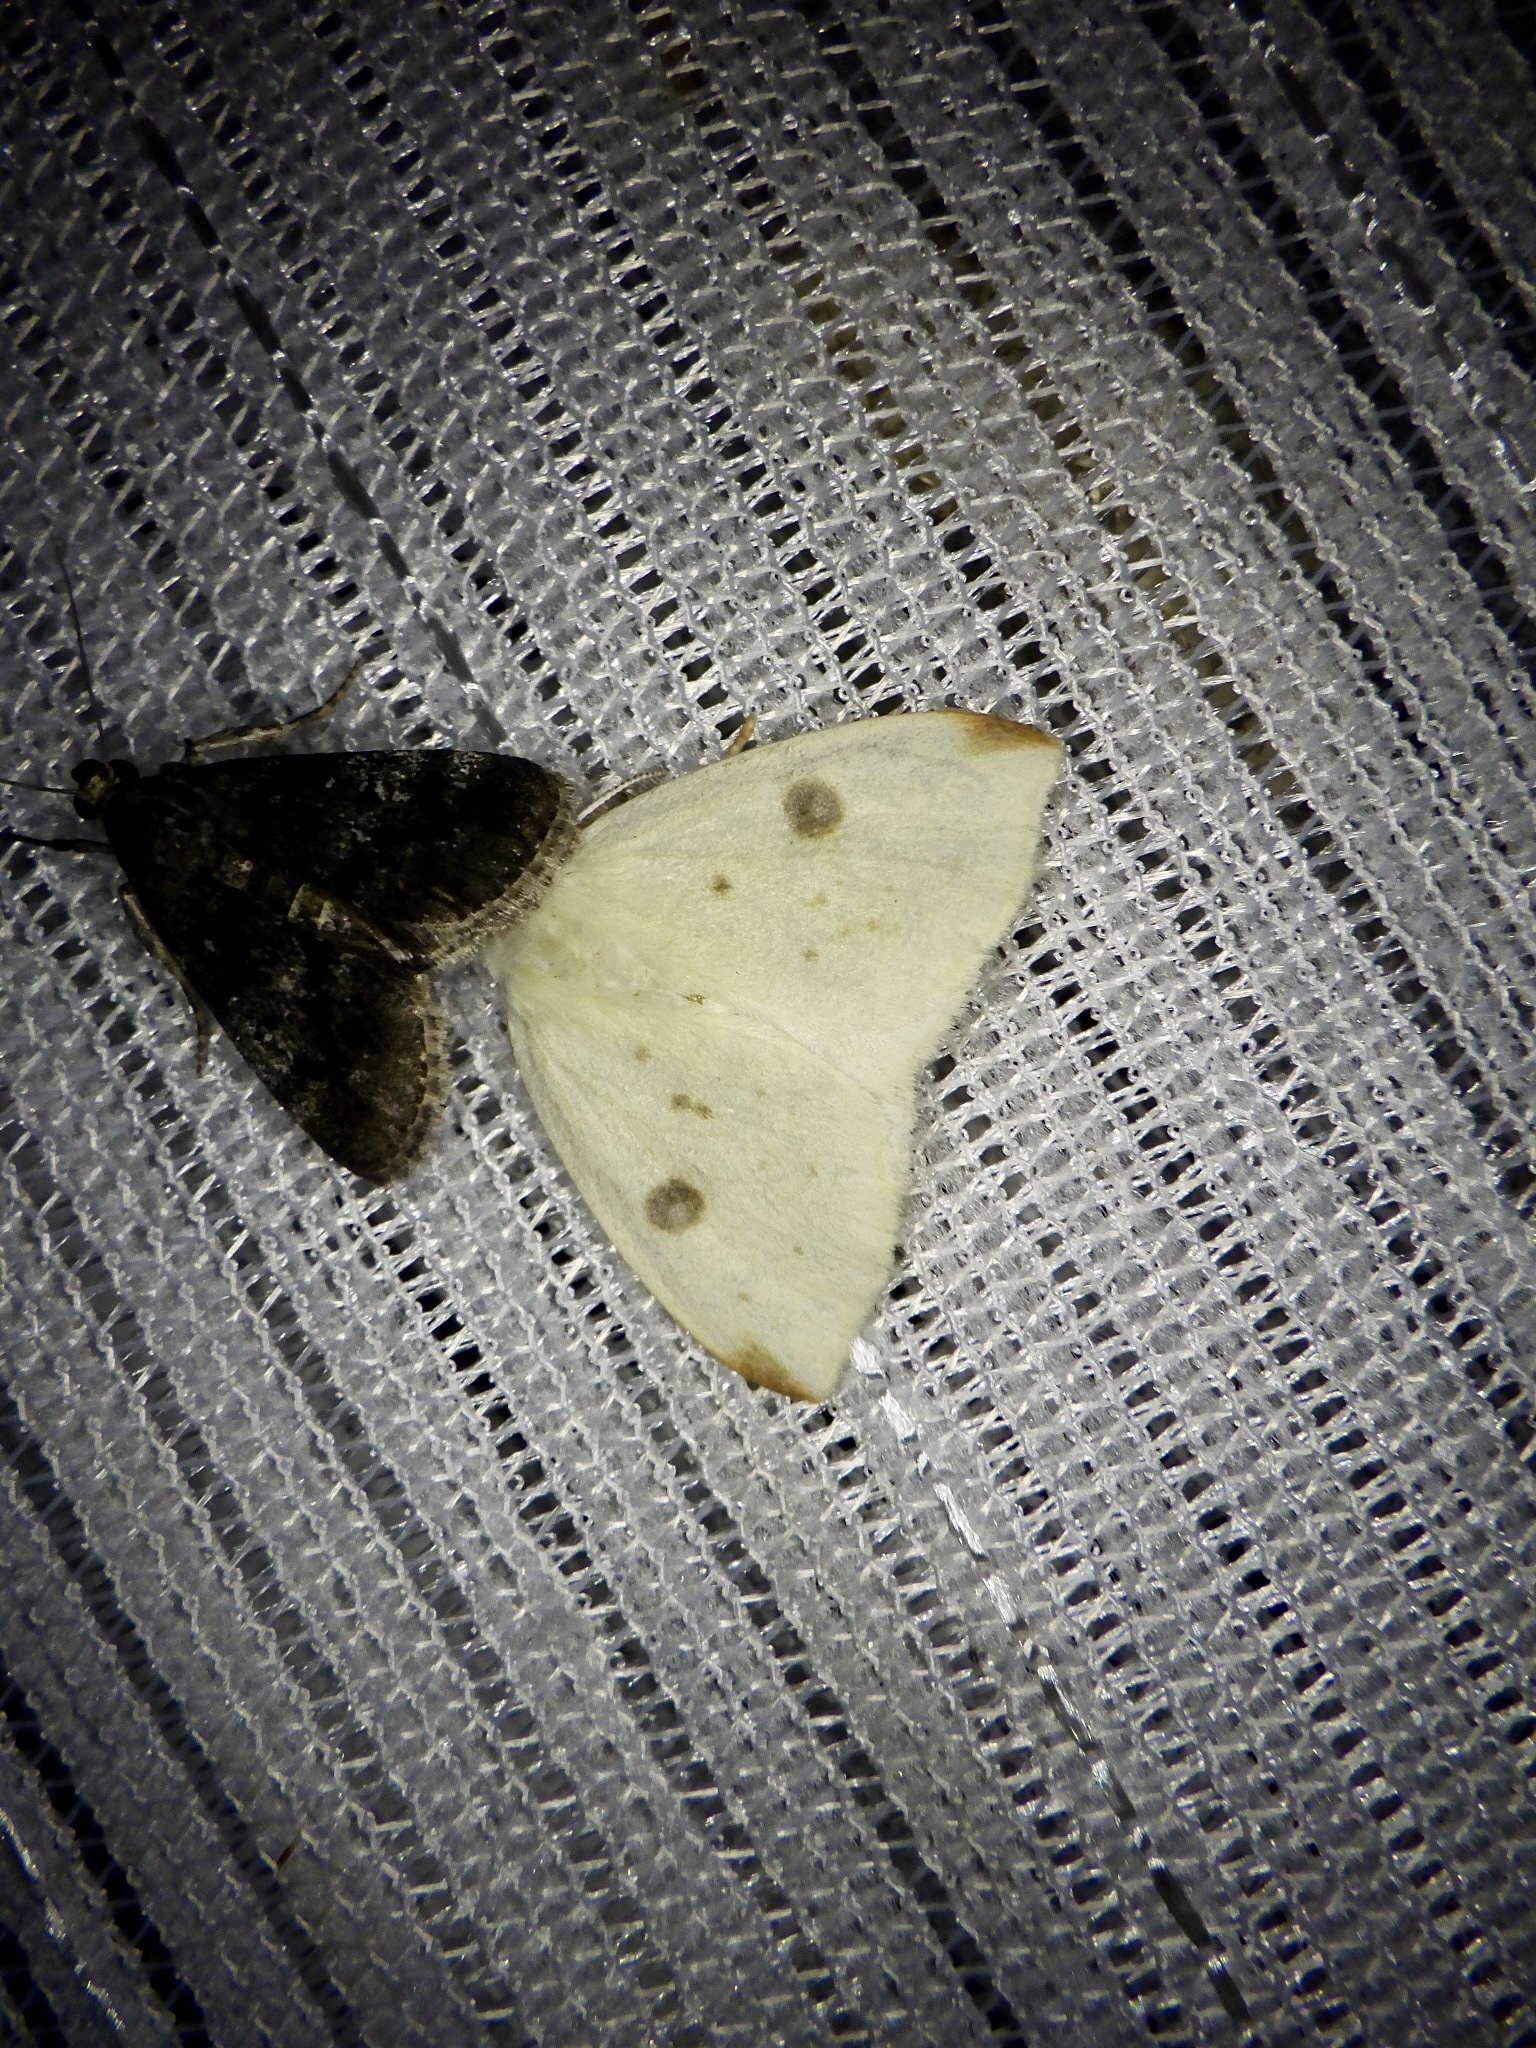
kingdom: Animalia
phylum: Arthropoda
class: Insecta
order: Lepidoptera
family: Erebidae
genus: Topomesoides
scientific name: Topomesoides jonasii
